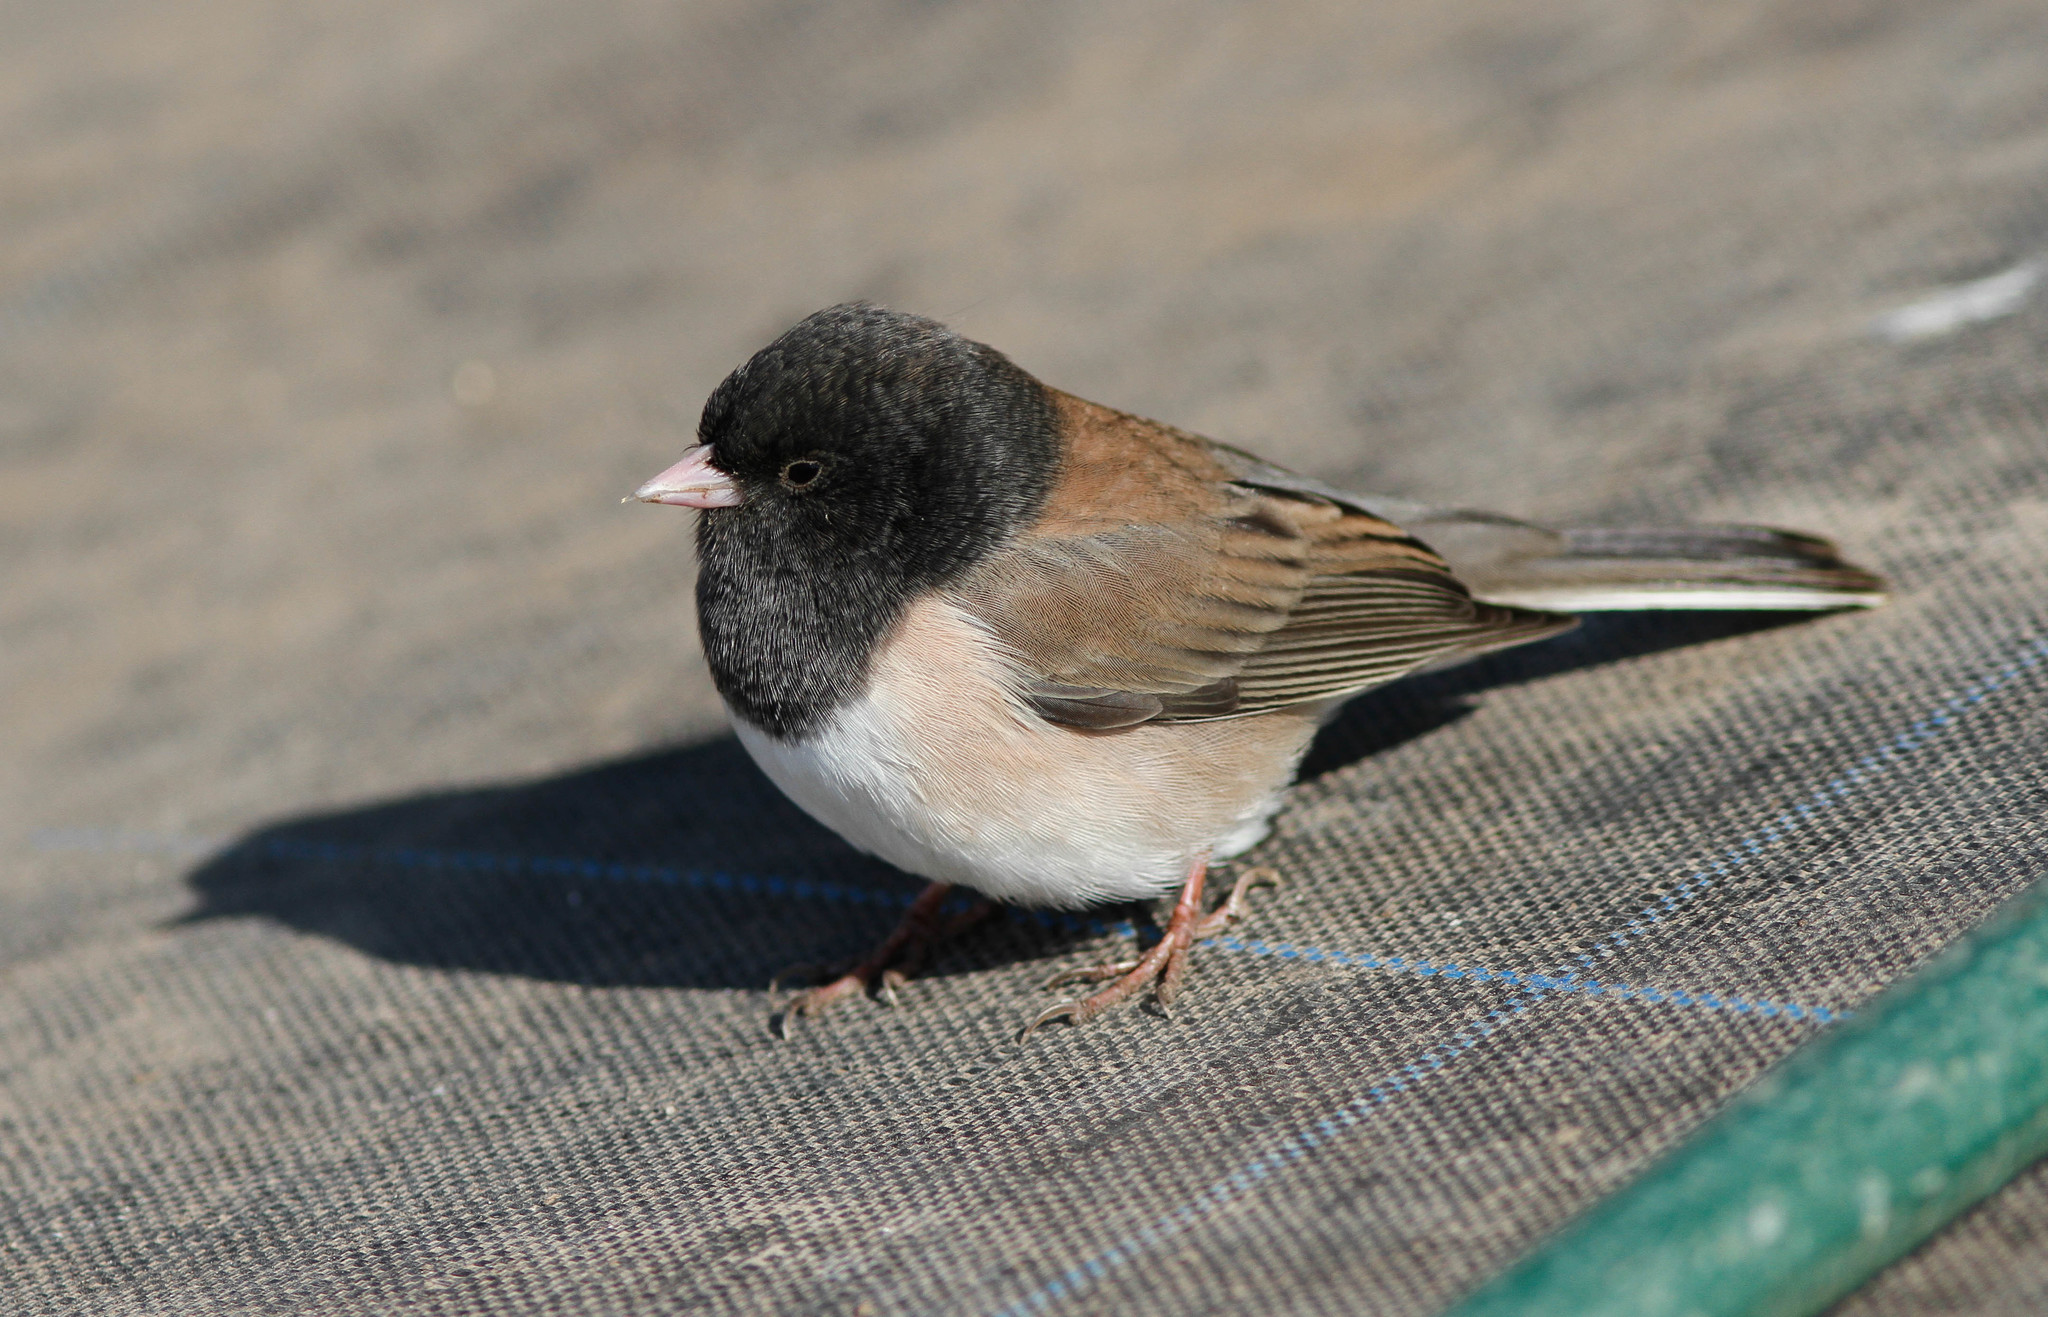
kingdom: Animalia
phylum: Chordata
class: Aves
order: Passeriformes
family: Passerellidae
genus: Junco
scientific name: Junco hyemalis
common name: Dark-eyed junco
